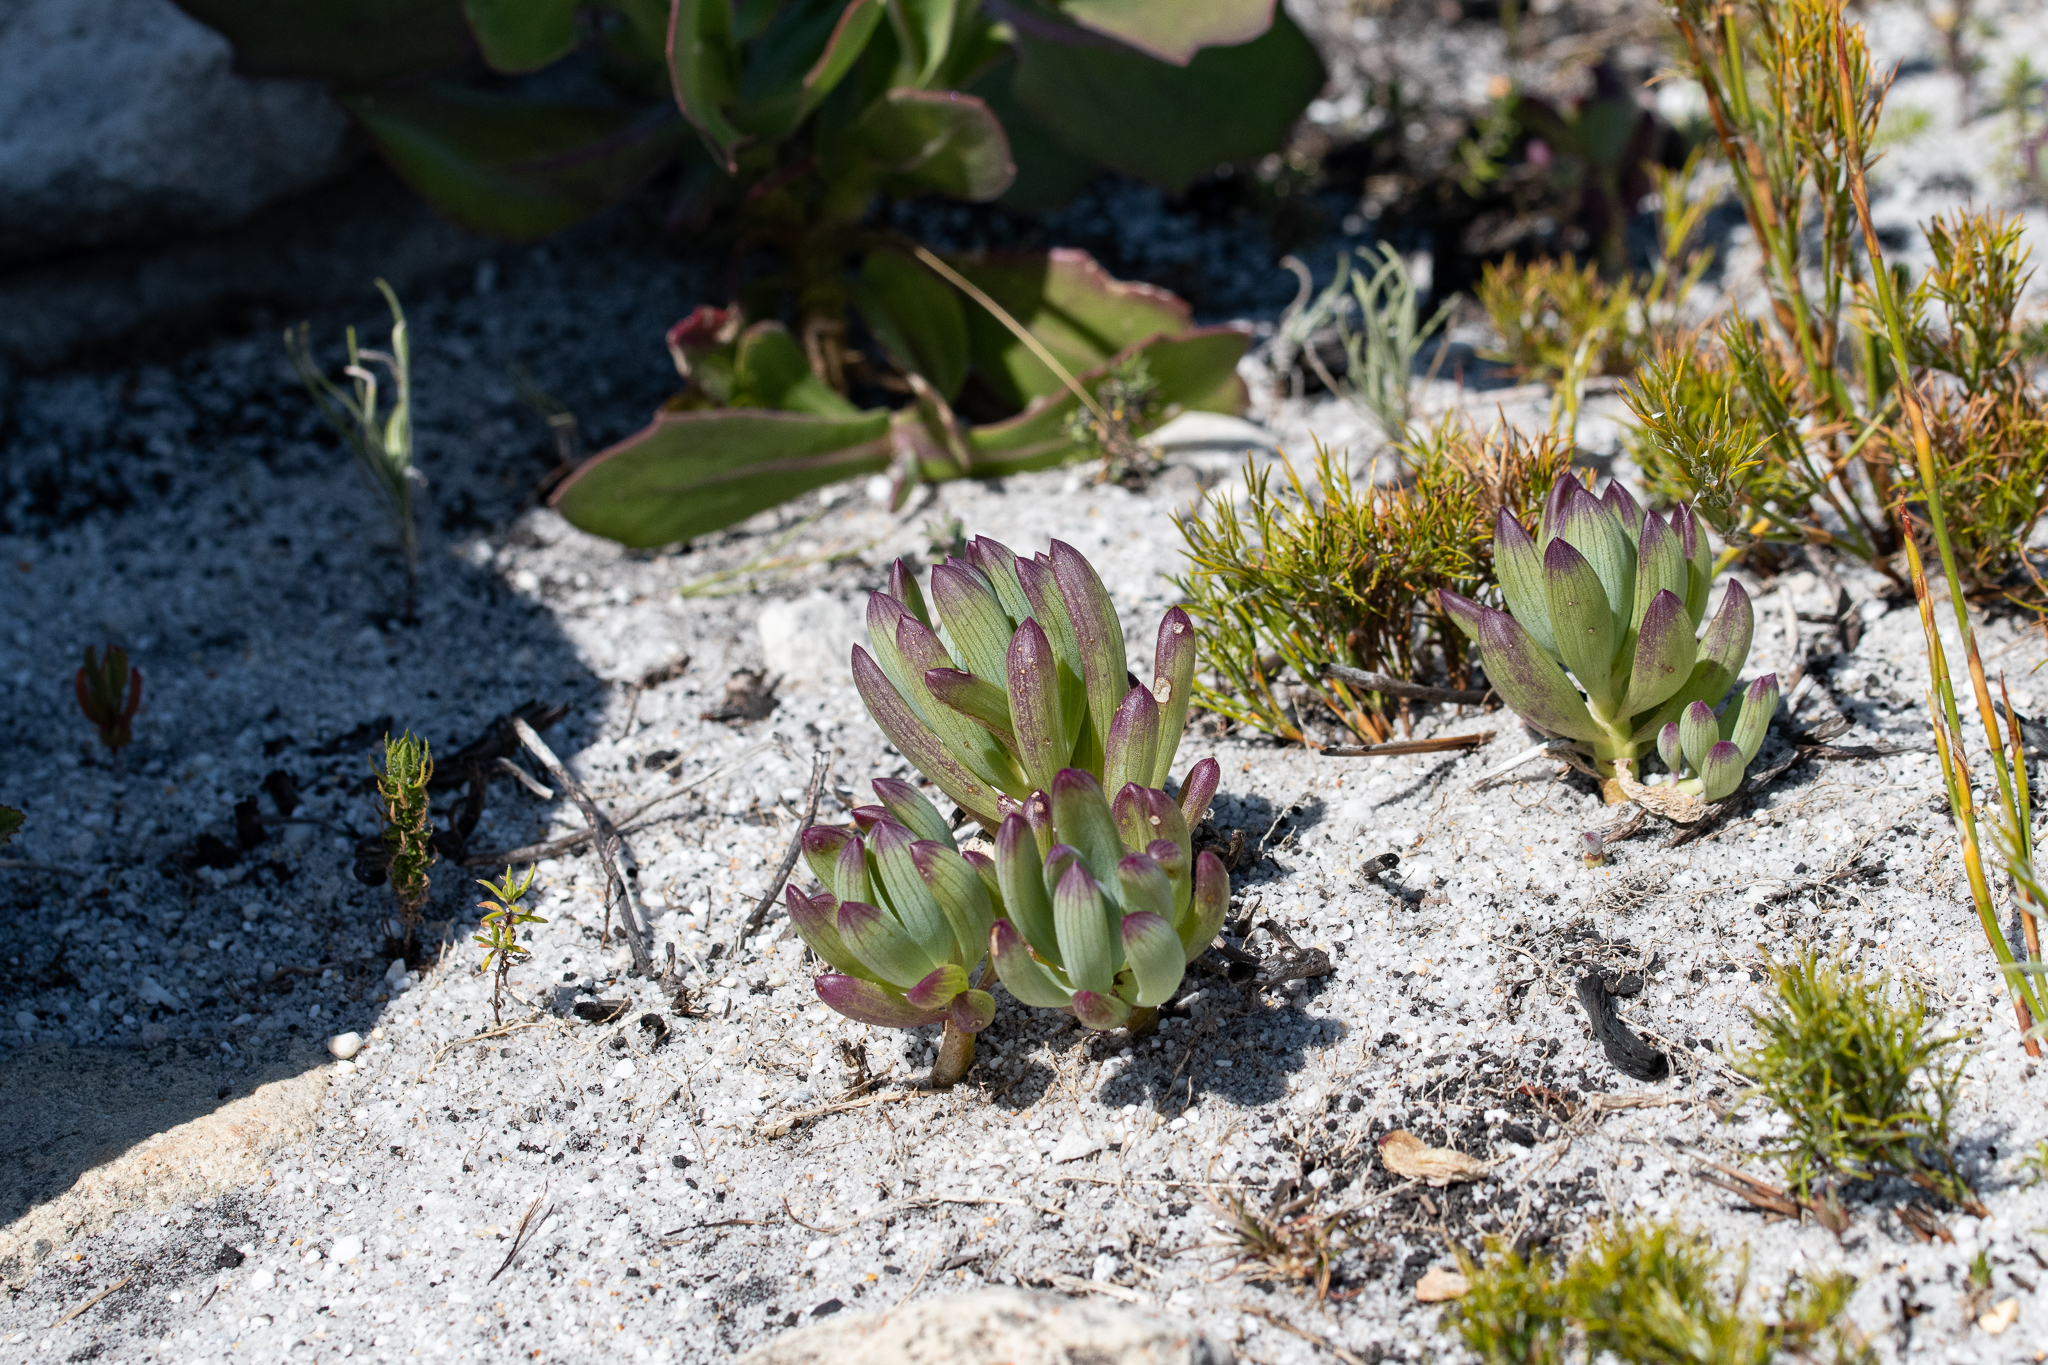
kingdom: Plantae
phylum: Tracheophyta
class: Magnoliopsida
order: Asterales
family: Asteraceae
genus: Curio
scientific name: Curio crassulifolius
